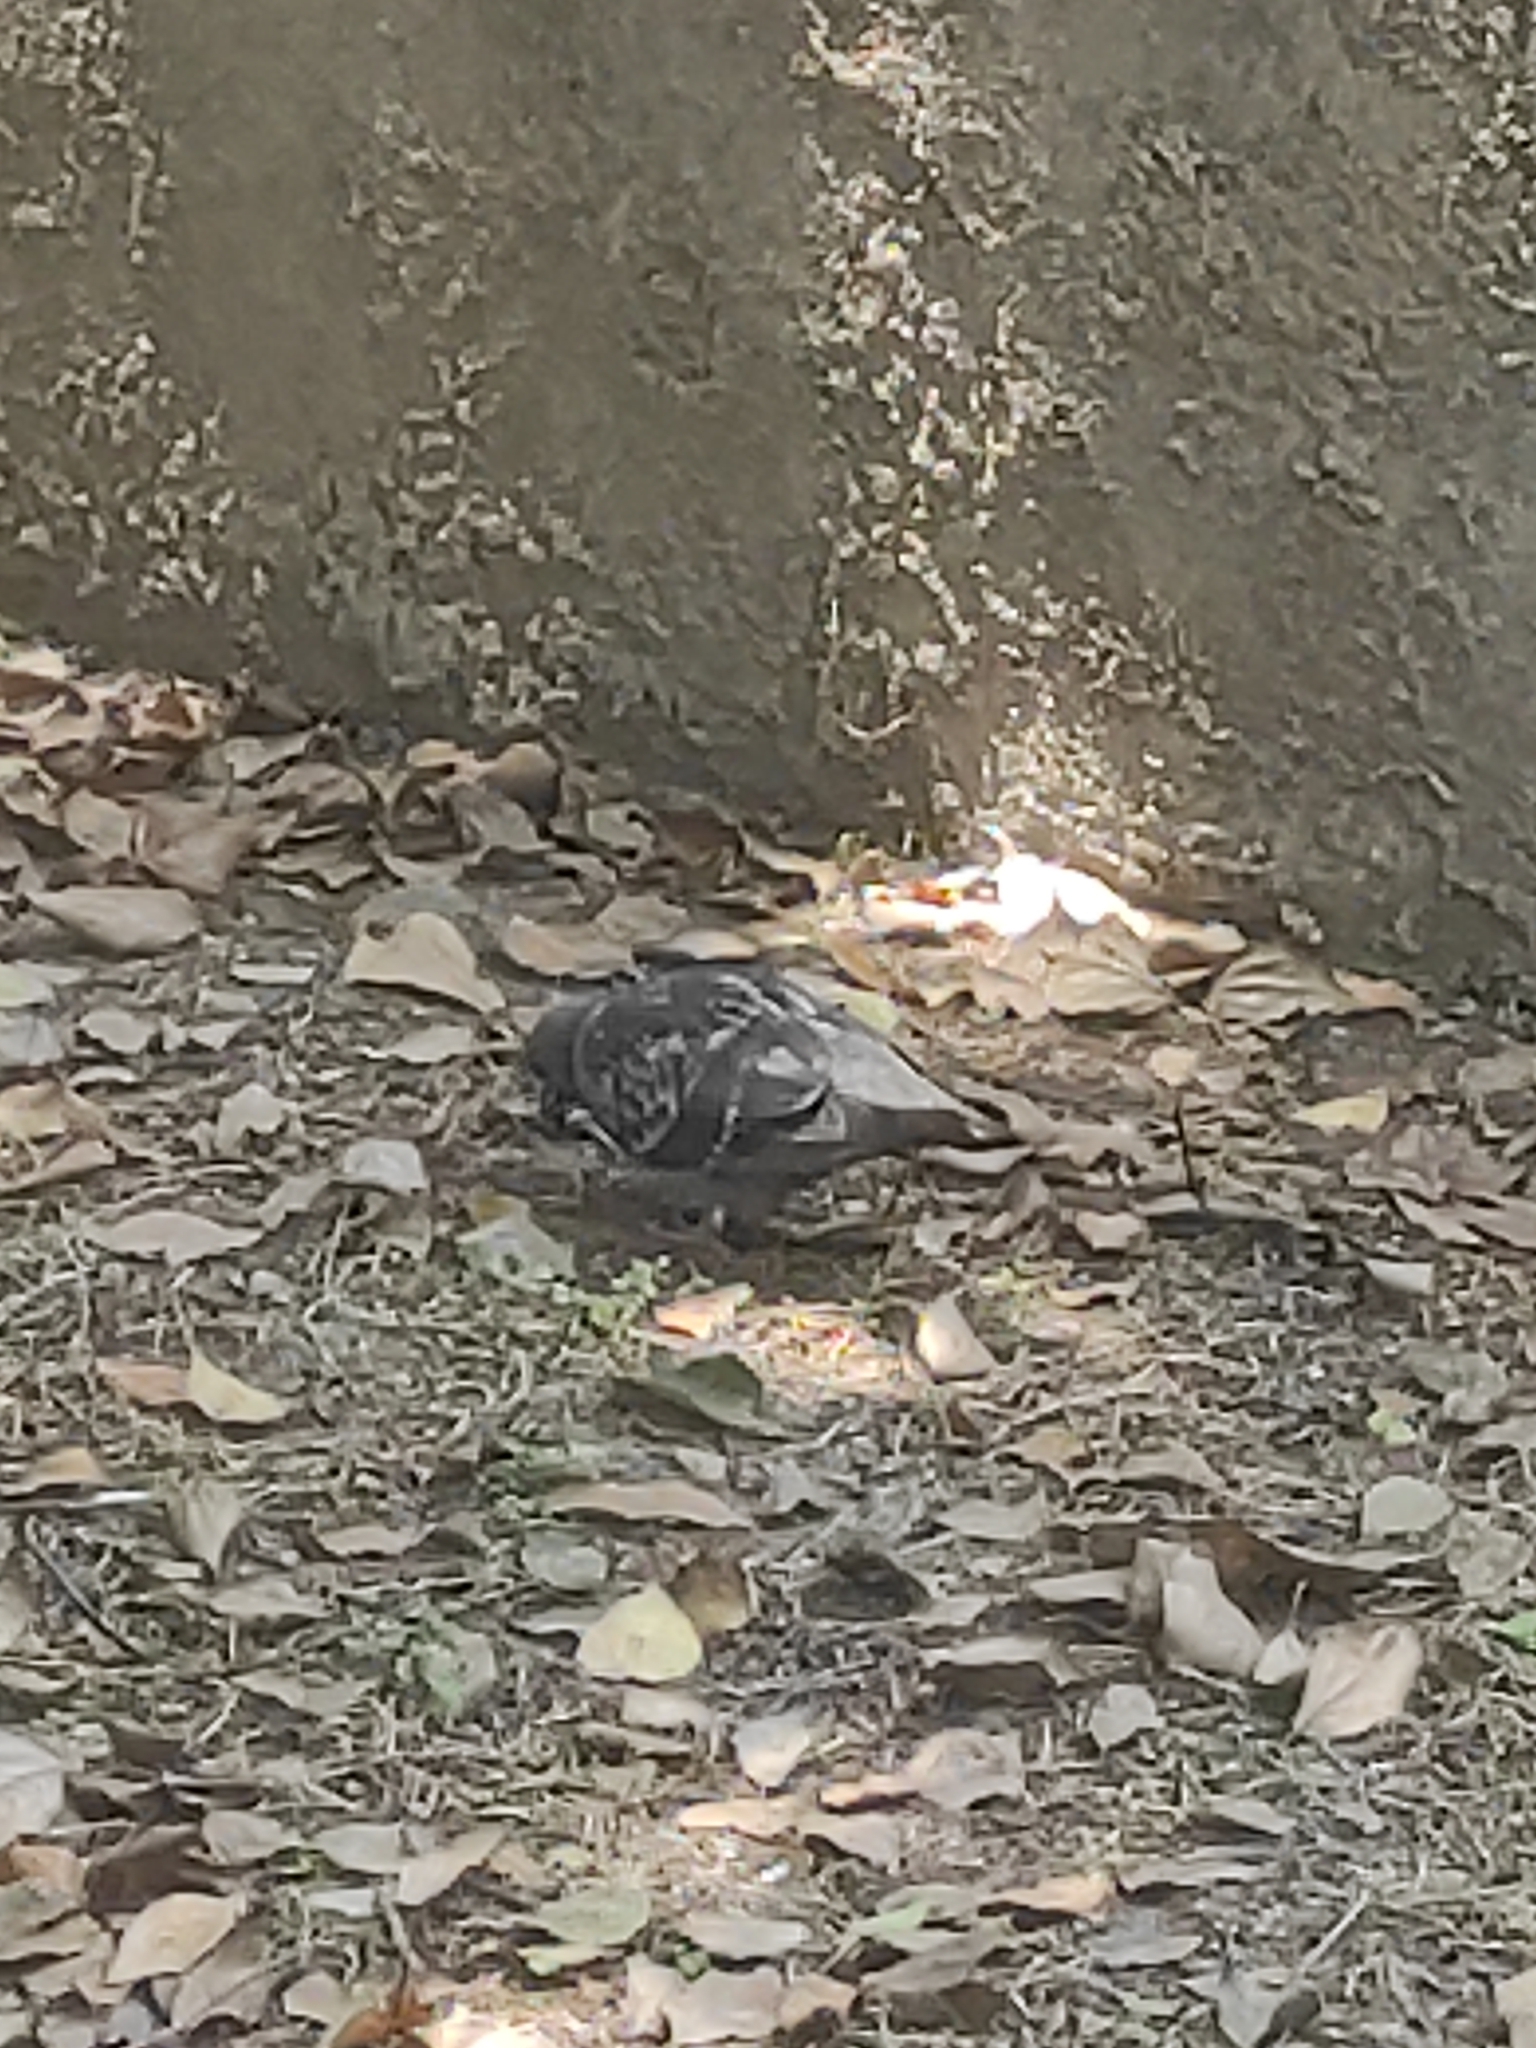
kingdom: Animalia
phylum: Chordata
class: Aves
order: Columbiformes
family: Columbidae
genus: Columba
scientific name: Columba livia
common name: Rock pigeon
